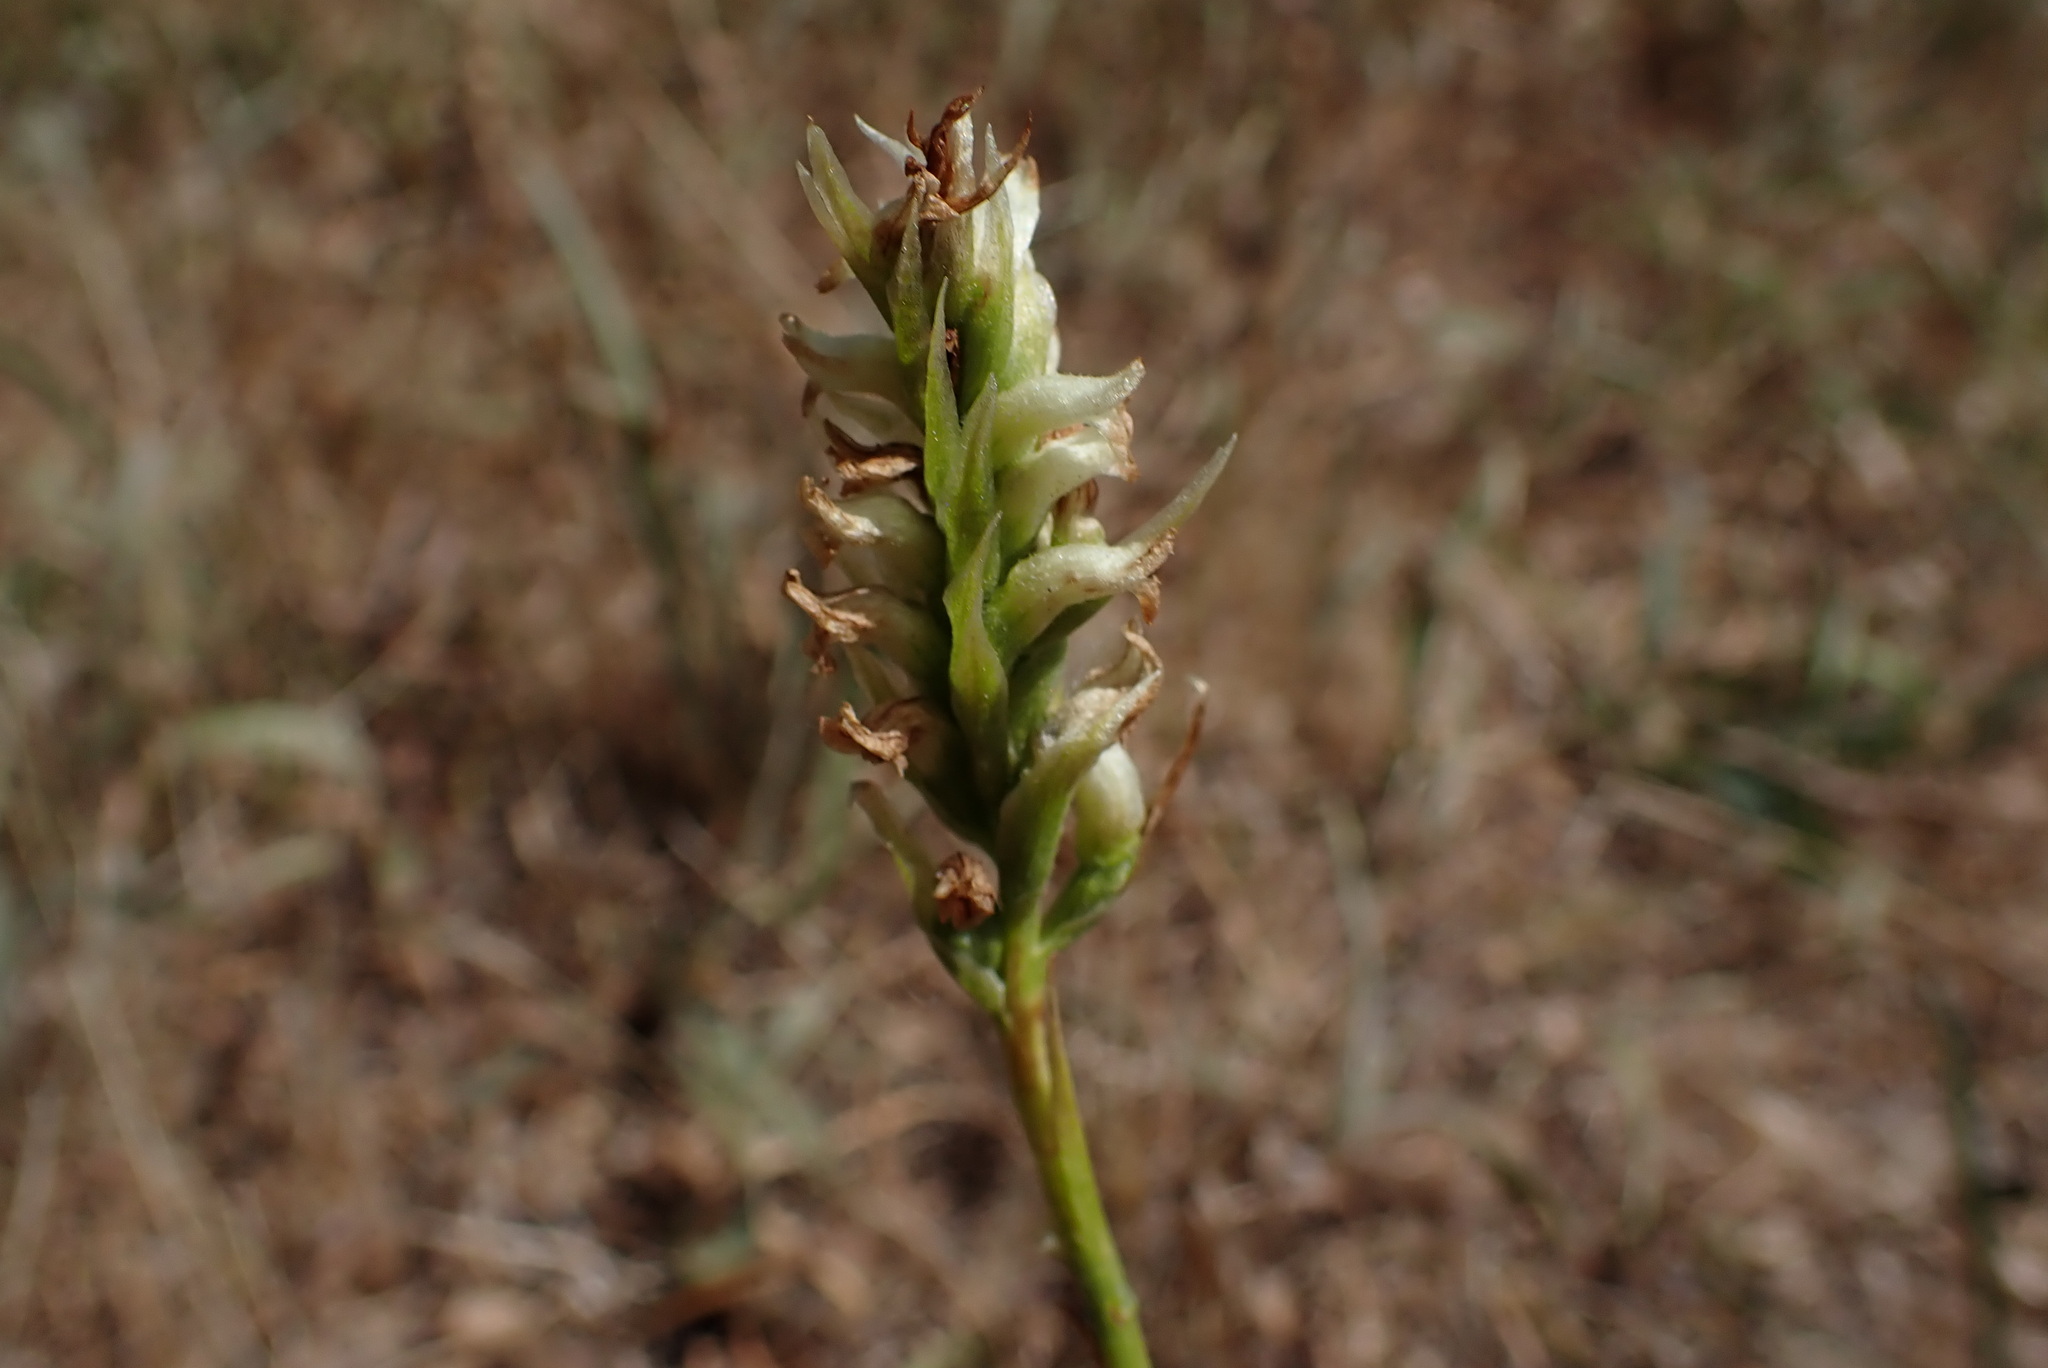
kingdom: Plantae
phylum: Tracheophyta
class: Liliopsida
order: Asparagales
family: Orchidaceae
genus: Spiranthes
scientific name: Spiranthes romanzoffiana
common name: Irish lady's-tresses
